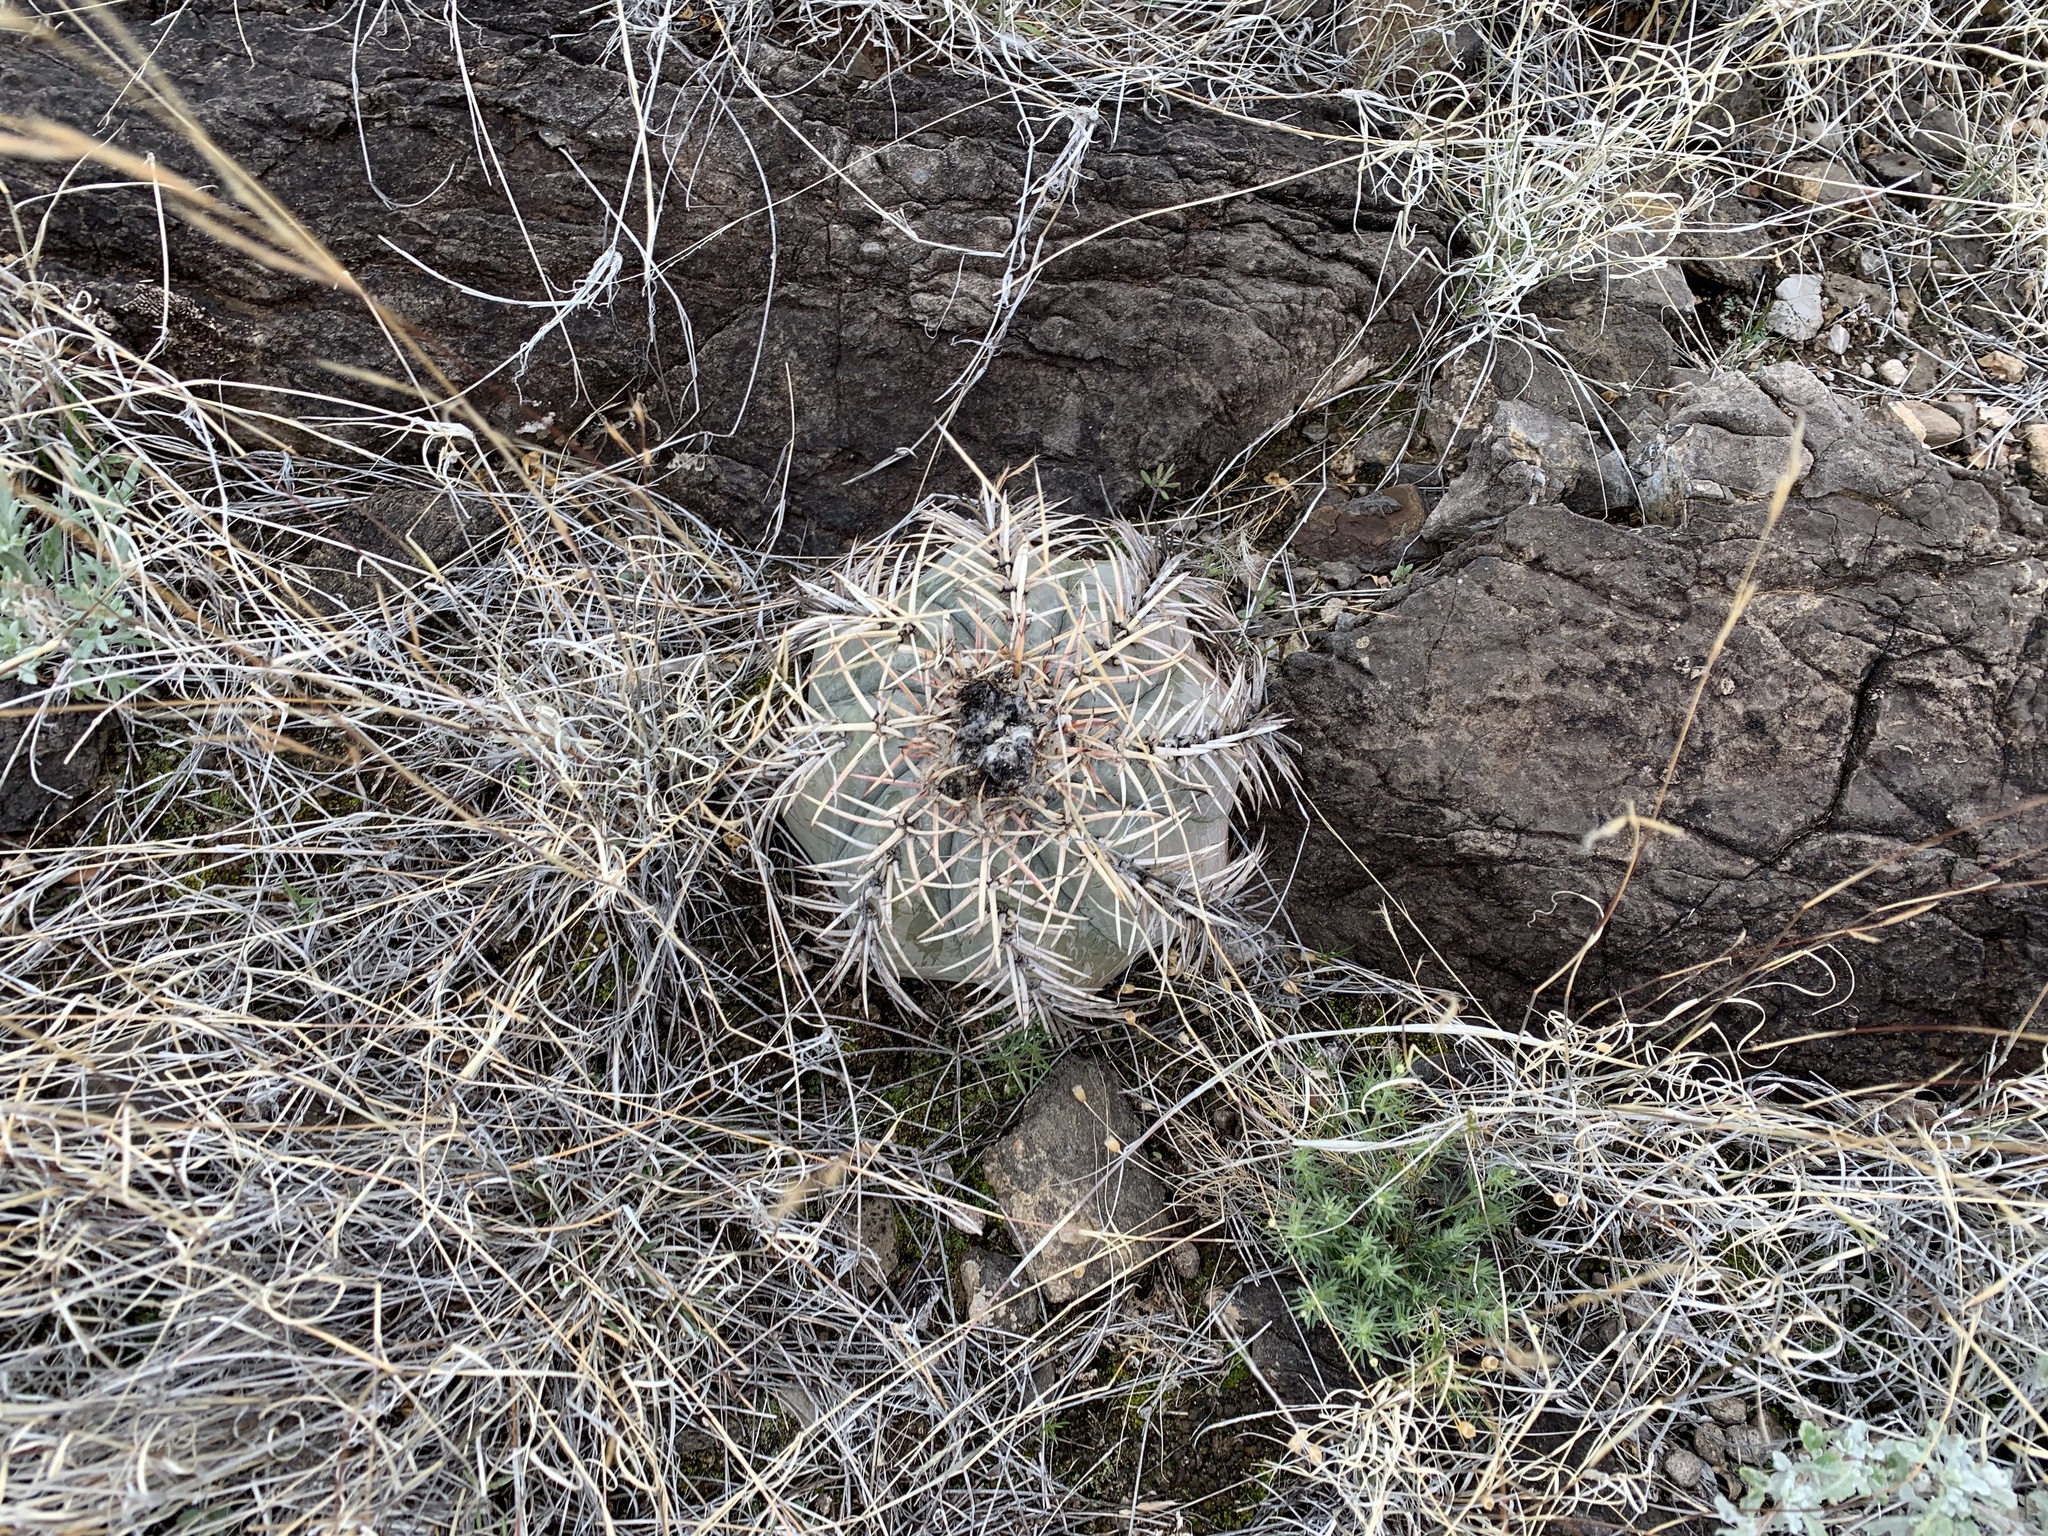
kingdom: Plantae
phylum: Tracheophyta
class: Magnoliopsida
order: Caryophyllales
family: Cactaceae
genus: Echinocactus
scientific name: Echinocactus horizonthalonius
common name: Devilshead
